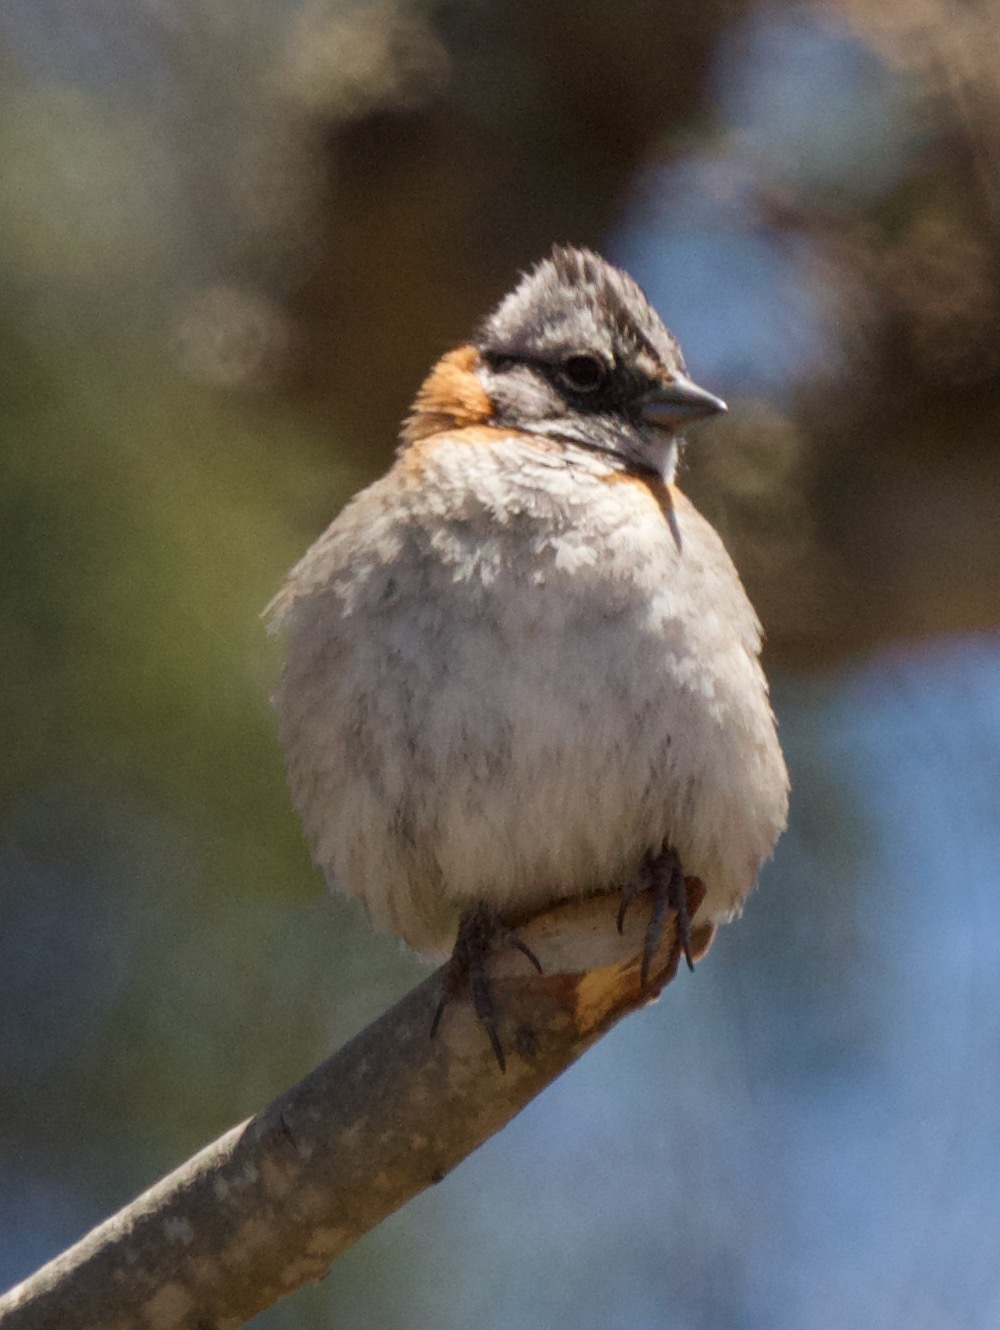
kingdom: Animalia
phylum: Chordata
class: Aves
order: Passeriformes
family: Passerellidae
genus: Zonotrichia
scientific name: Zonotrichia capensis
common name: Rufous-collared sparrow
